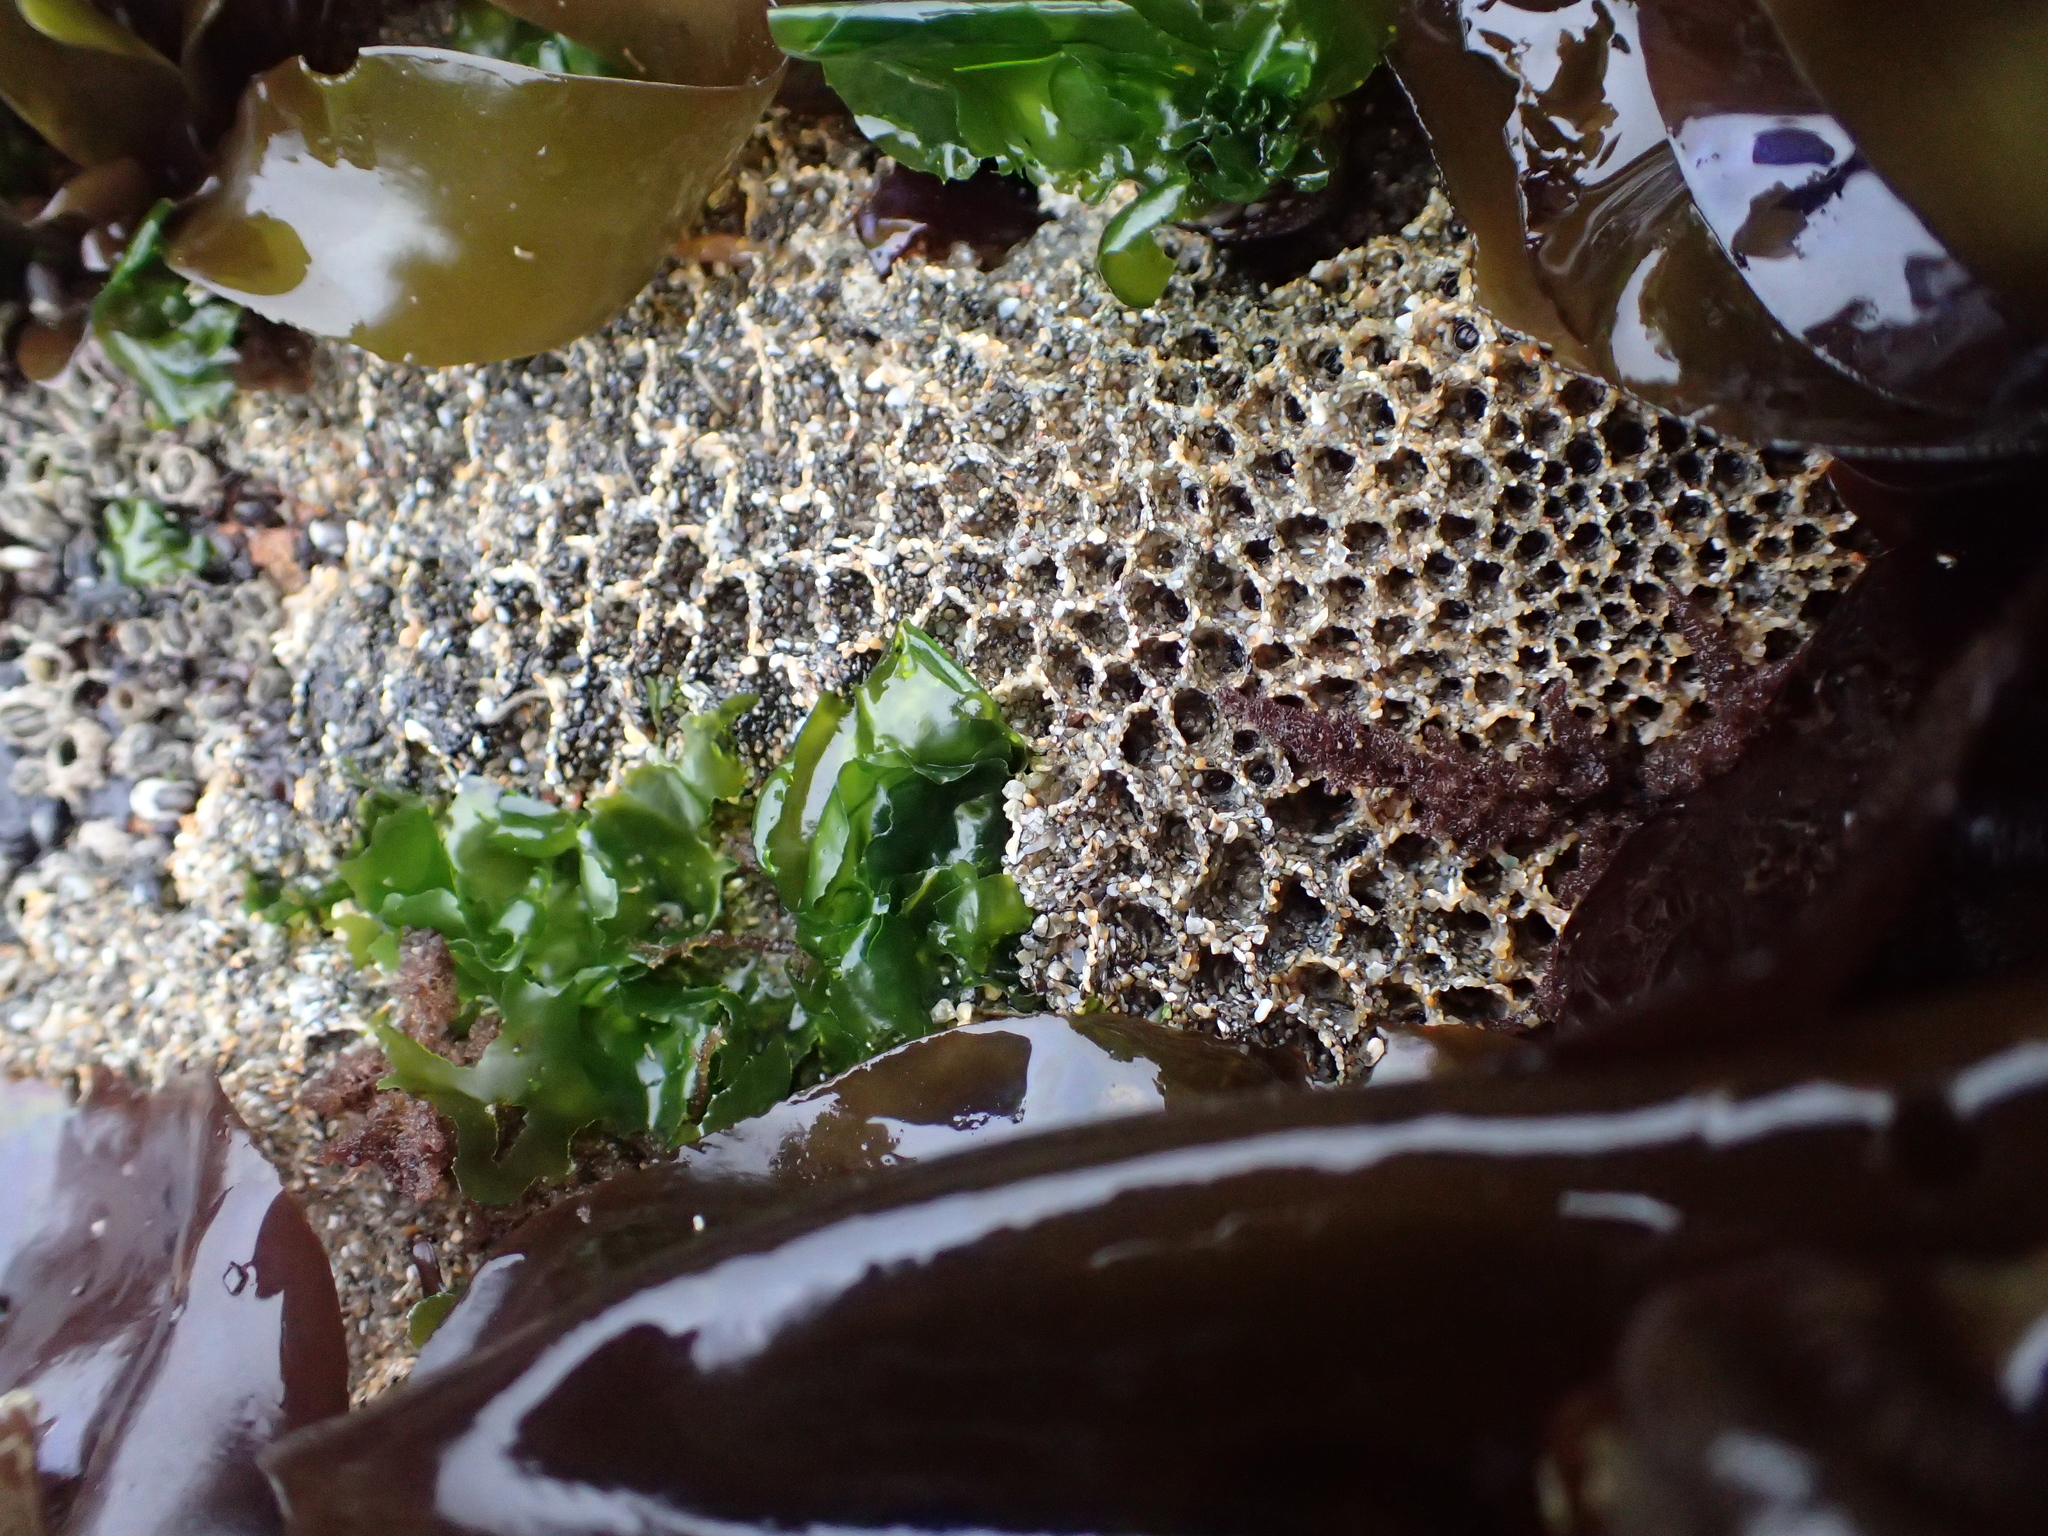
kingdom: Animalia
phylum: Annelida
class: Polychaeta
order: Sabellida
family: Sabellariidae
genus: Phragmatopoma
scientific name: Phragmatopoma californica
